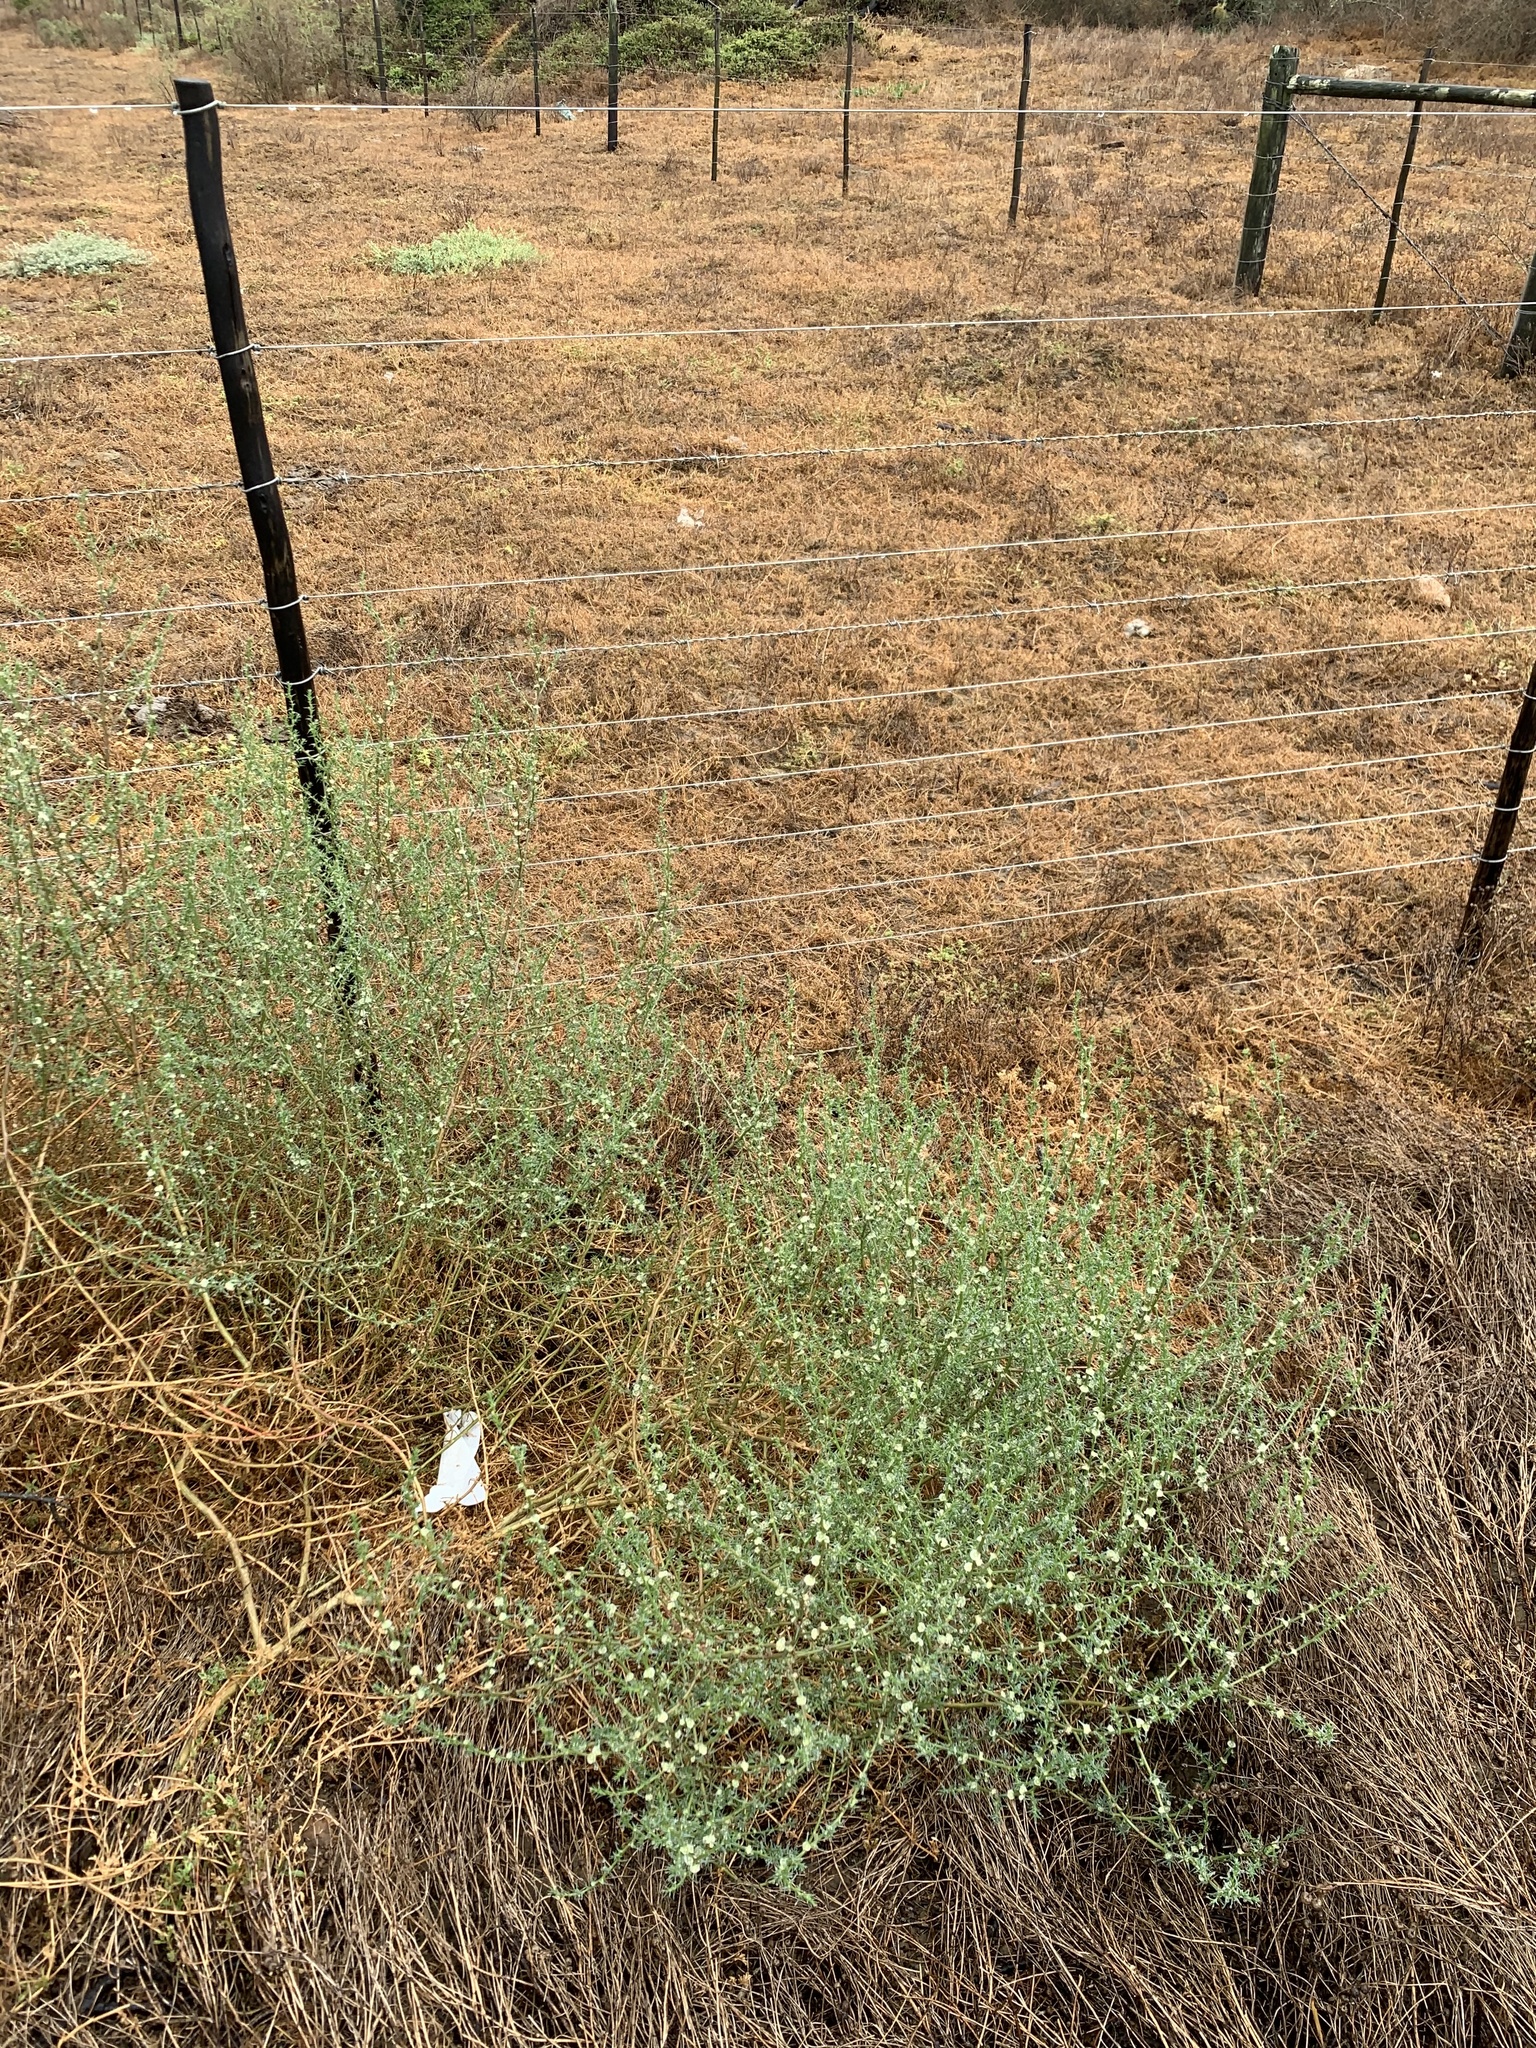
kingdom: Plantae
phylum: Tracheophyta
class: Magnoliopsida
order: Caryophyllales
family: Amaranthaceae
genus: Salsola
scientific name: Salsola kali
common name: Saltwort
